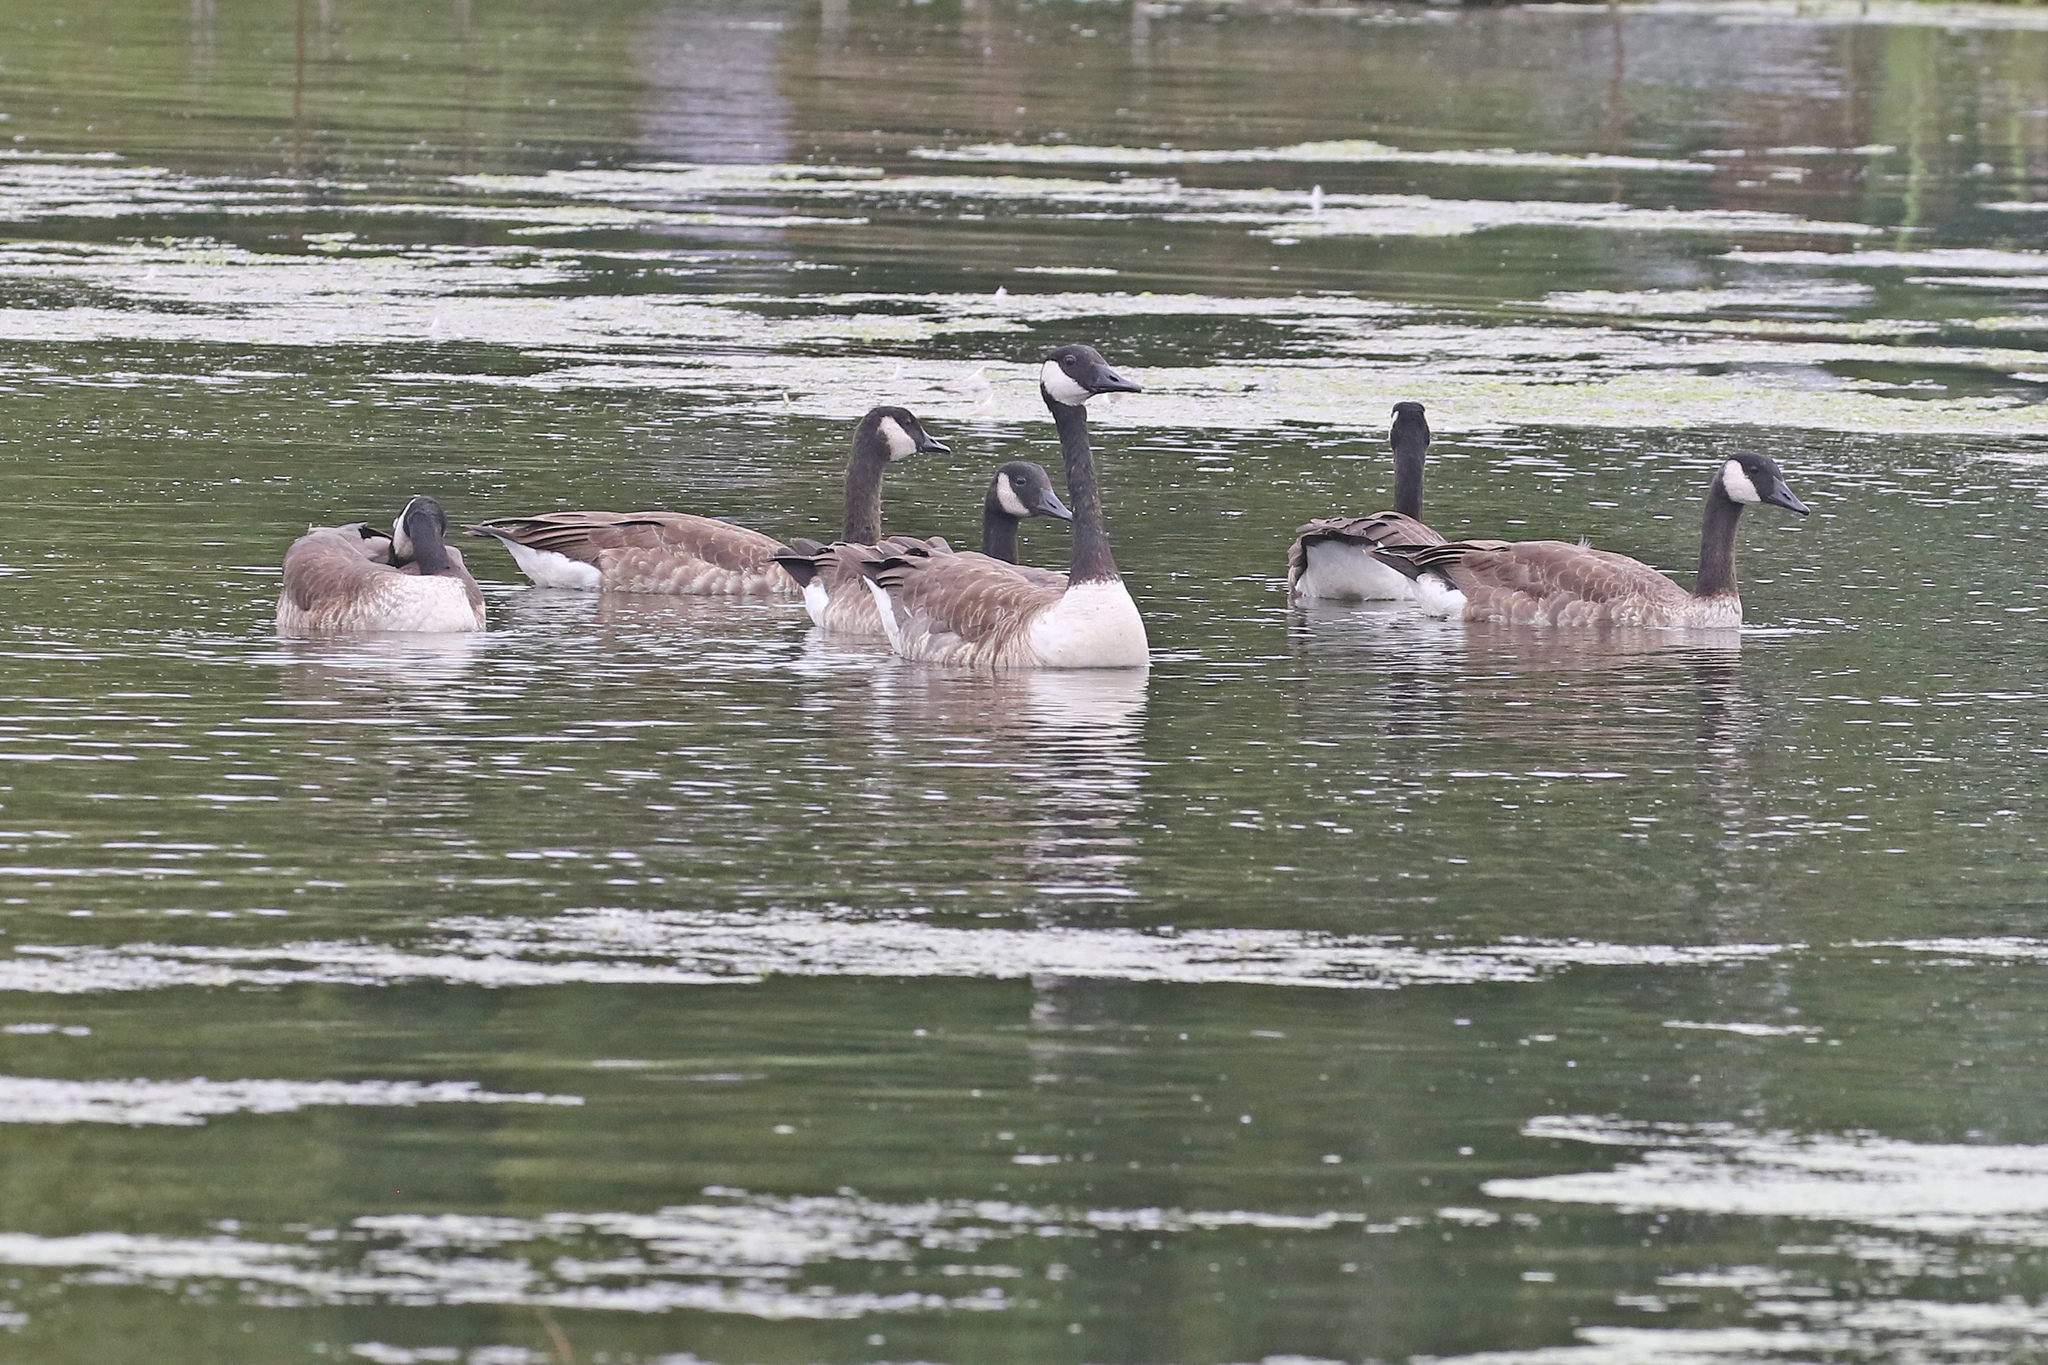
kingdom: Animalia
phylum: Chordata
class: Aves
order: Anseriformes
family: Anatidae
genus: Branta
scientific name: Branta canadensis
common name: Canada goose
